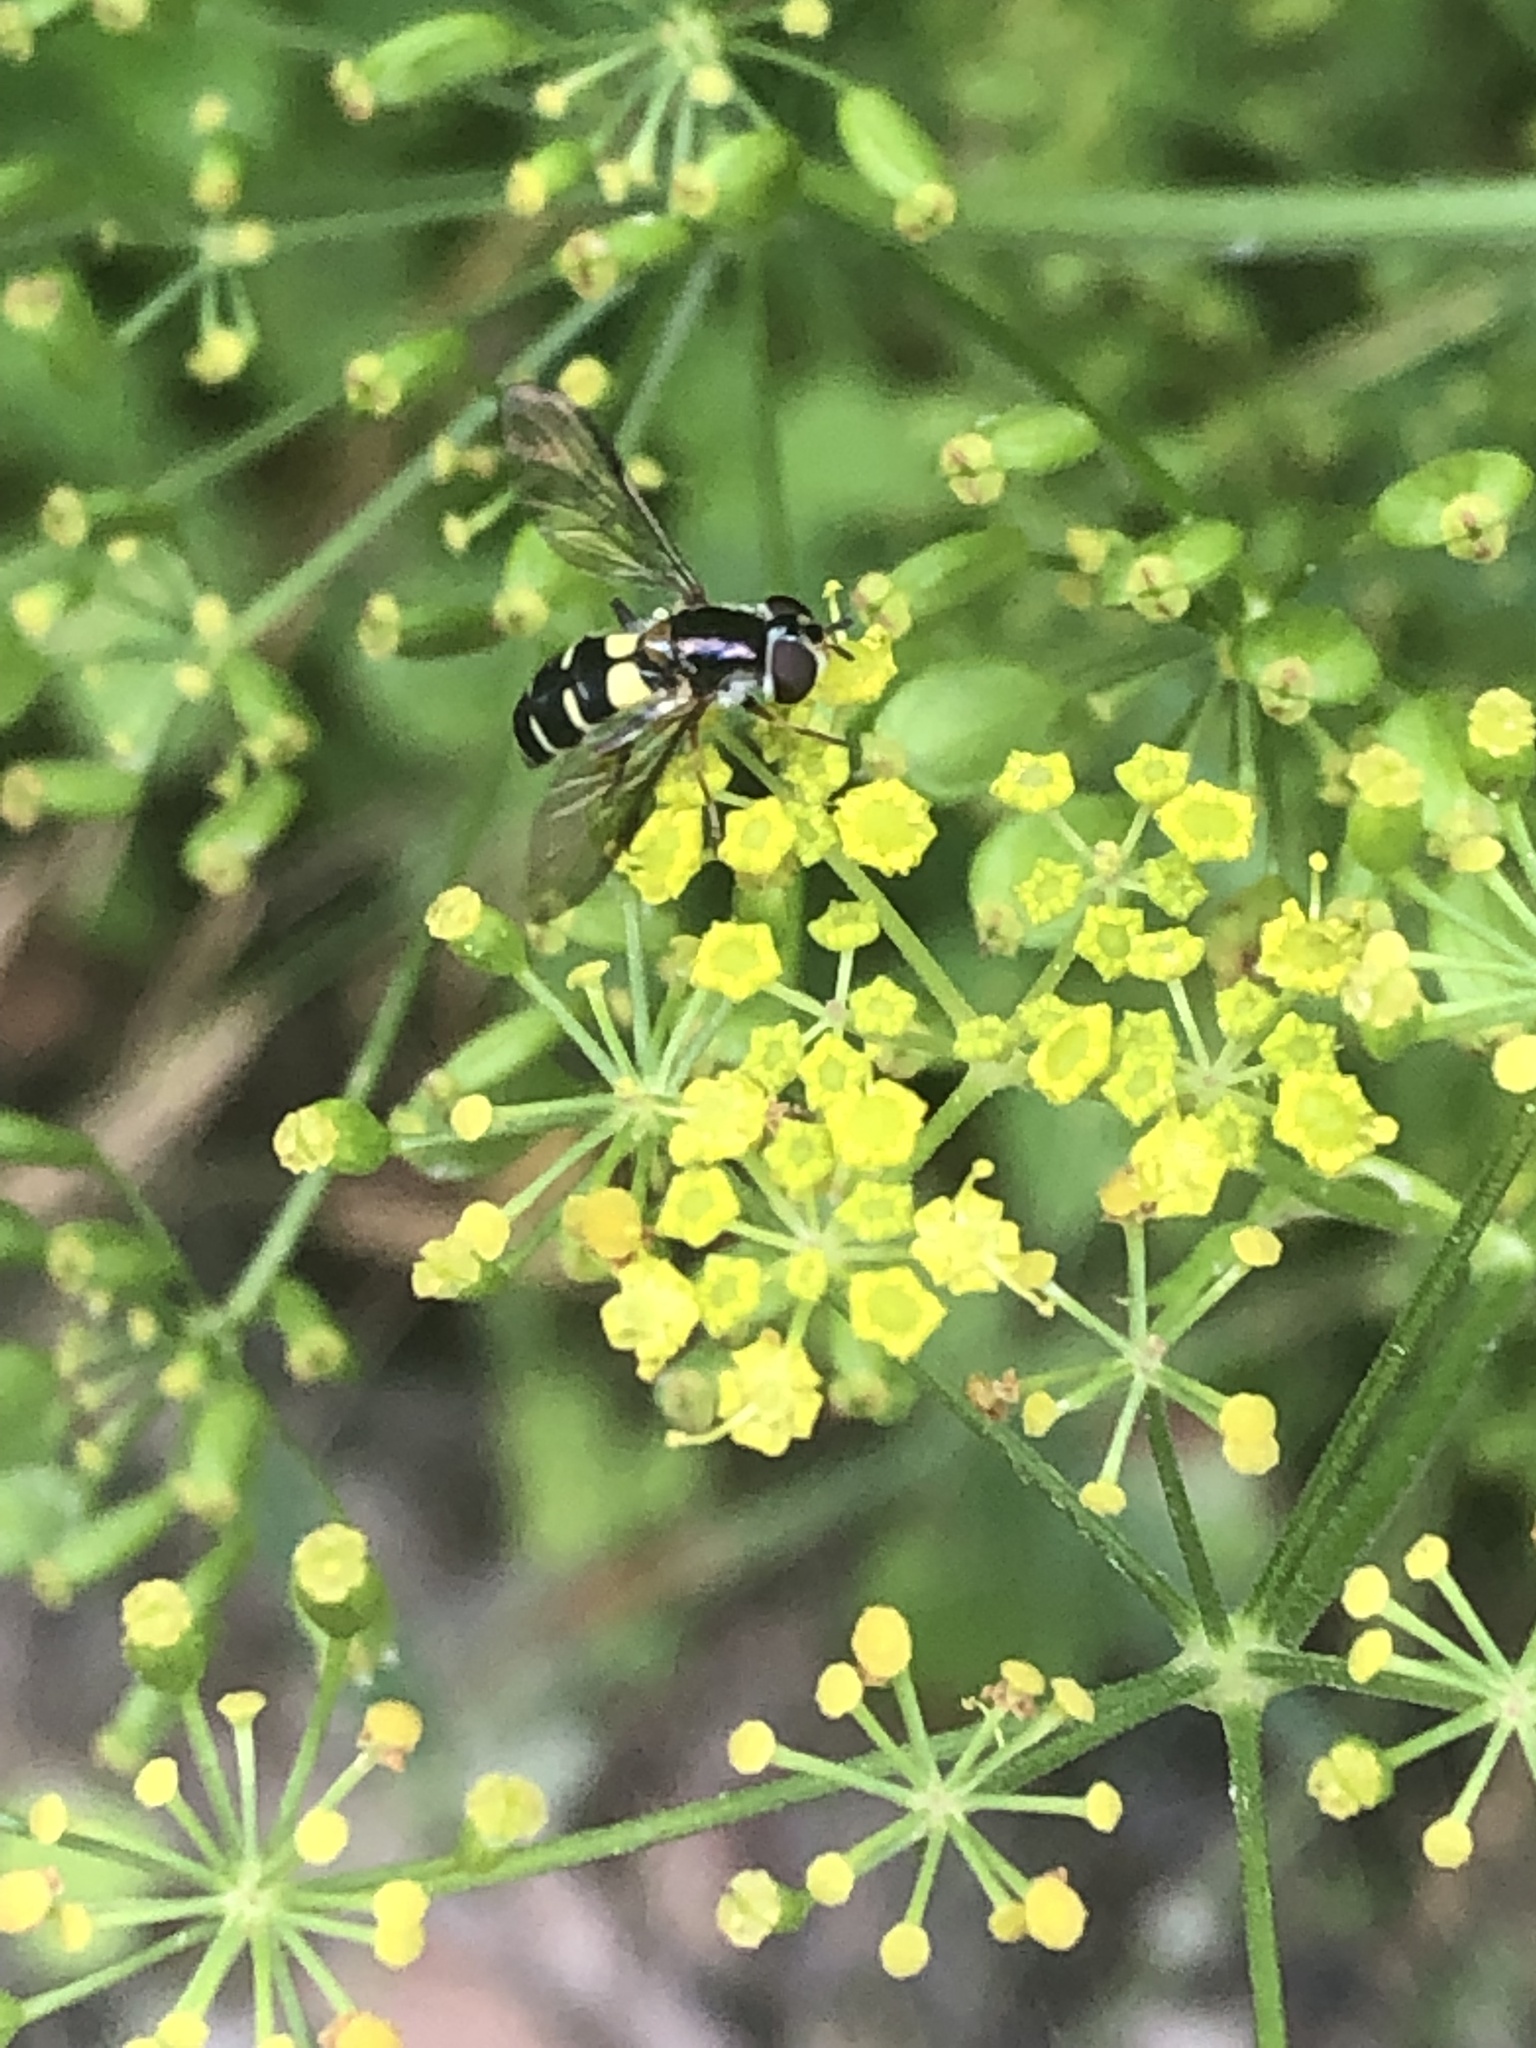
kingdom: Animalia
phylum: Arthropoda
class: Insecta
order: Diptera
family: Syrphidae
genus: Melangyna
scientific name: Melangyna fisherii
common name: Large-spotted halfband
